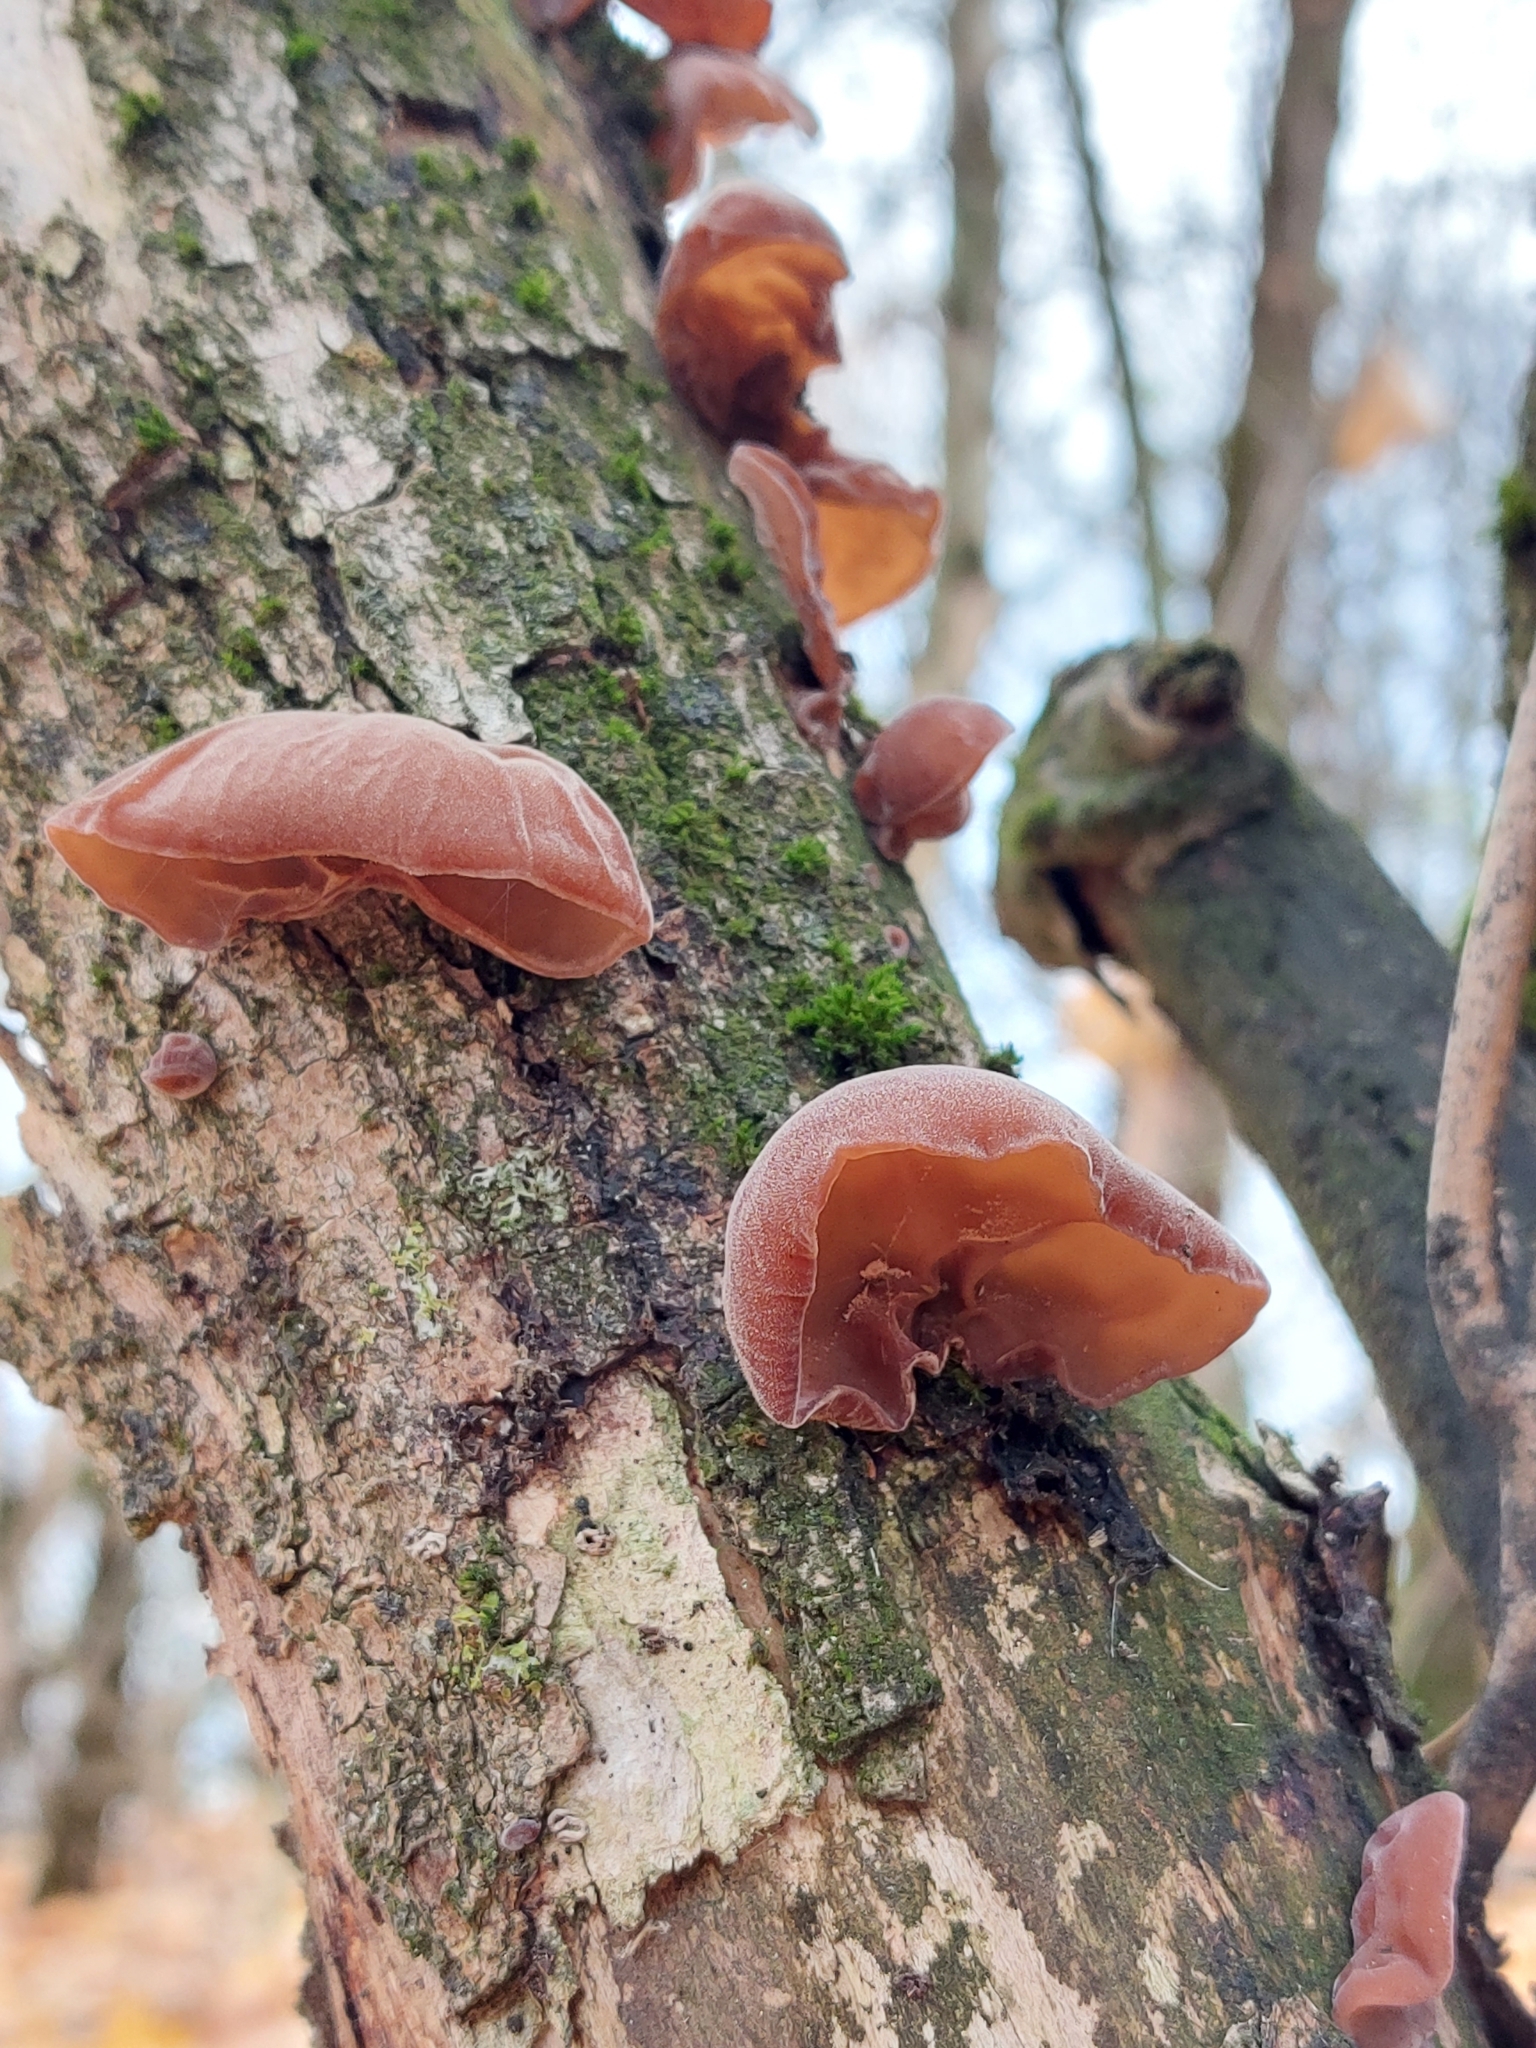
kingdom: Fungi
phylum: Basidiomycota
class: Agaricomycetes
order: Auriculariales
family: Auriculariaceae
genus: Auricularia
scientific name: Auricularia auricula-judae
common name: Jelly ear
